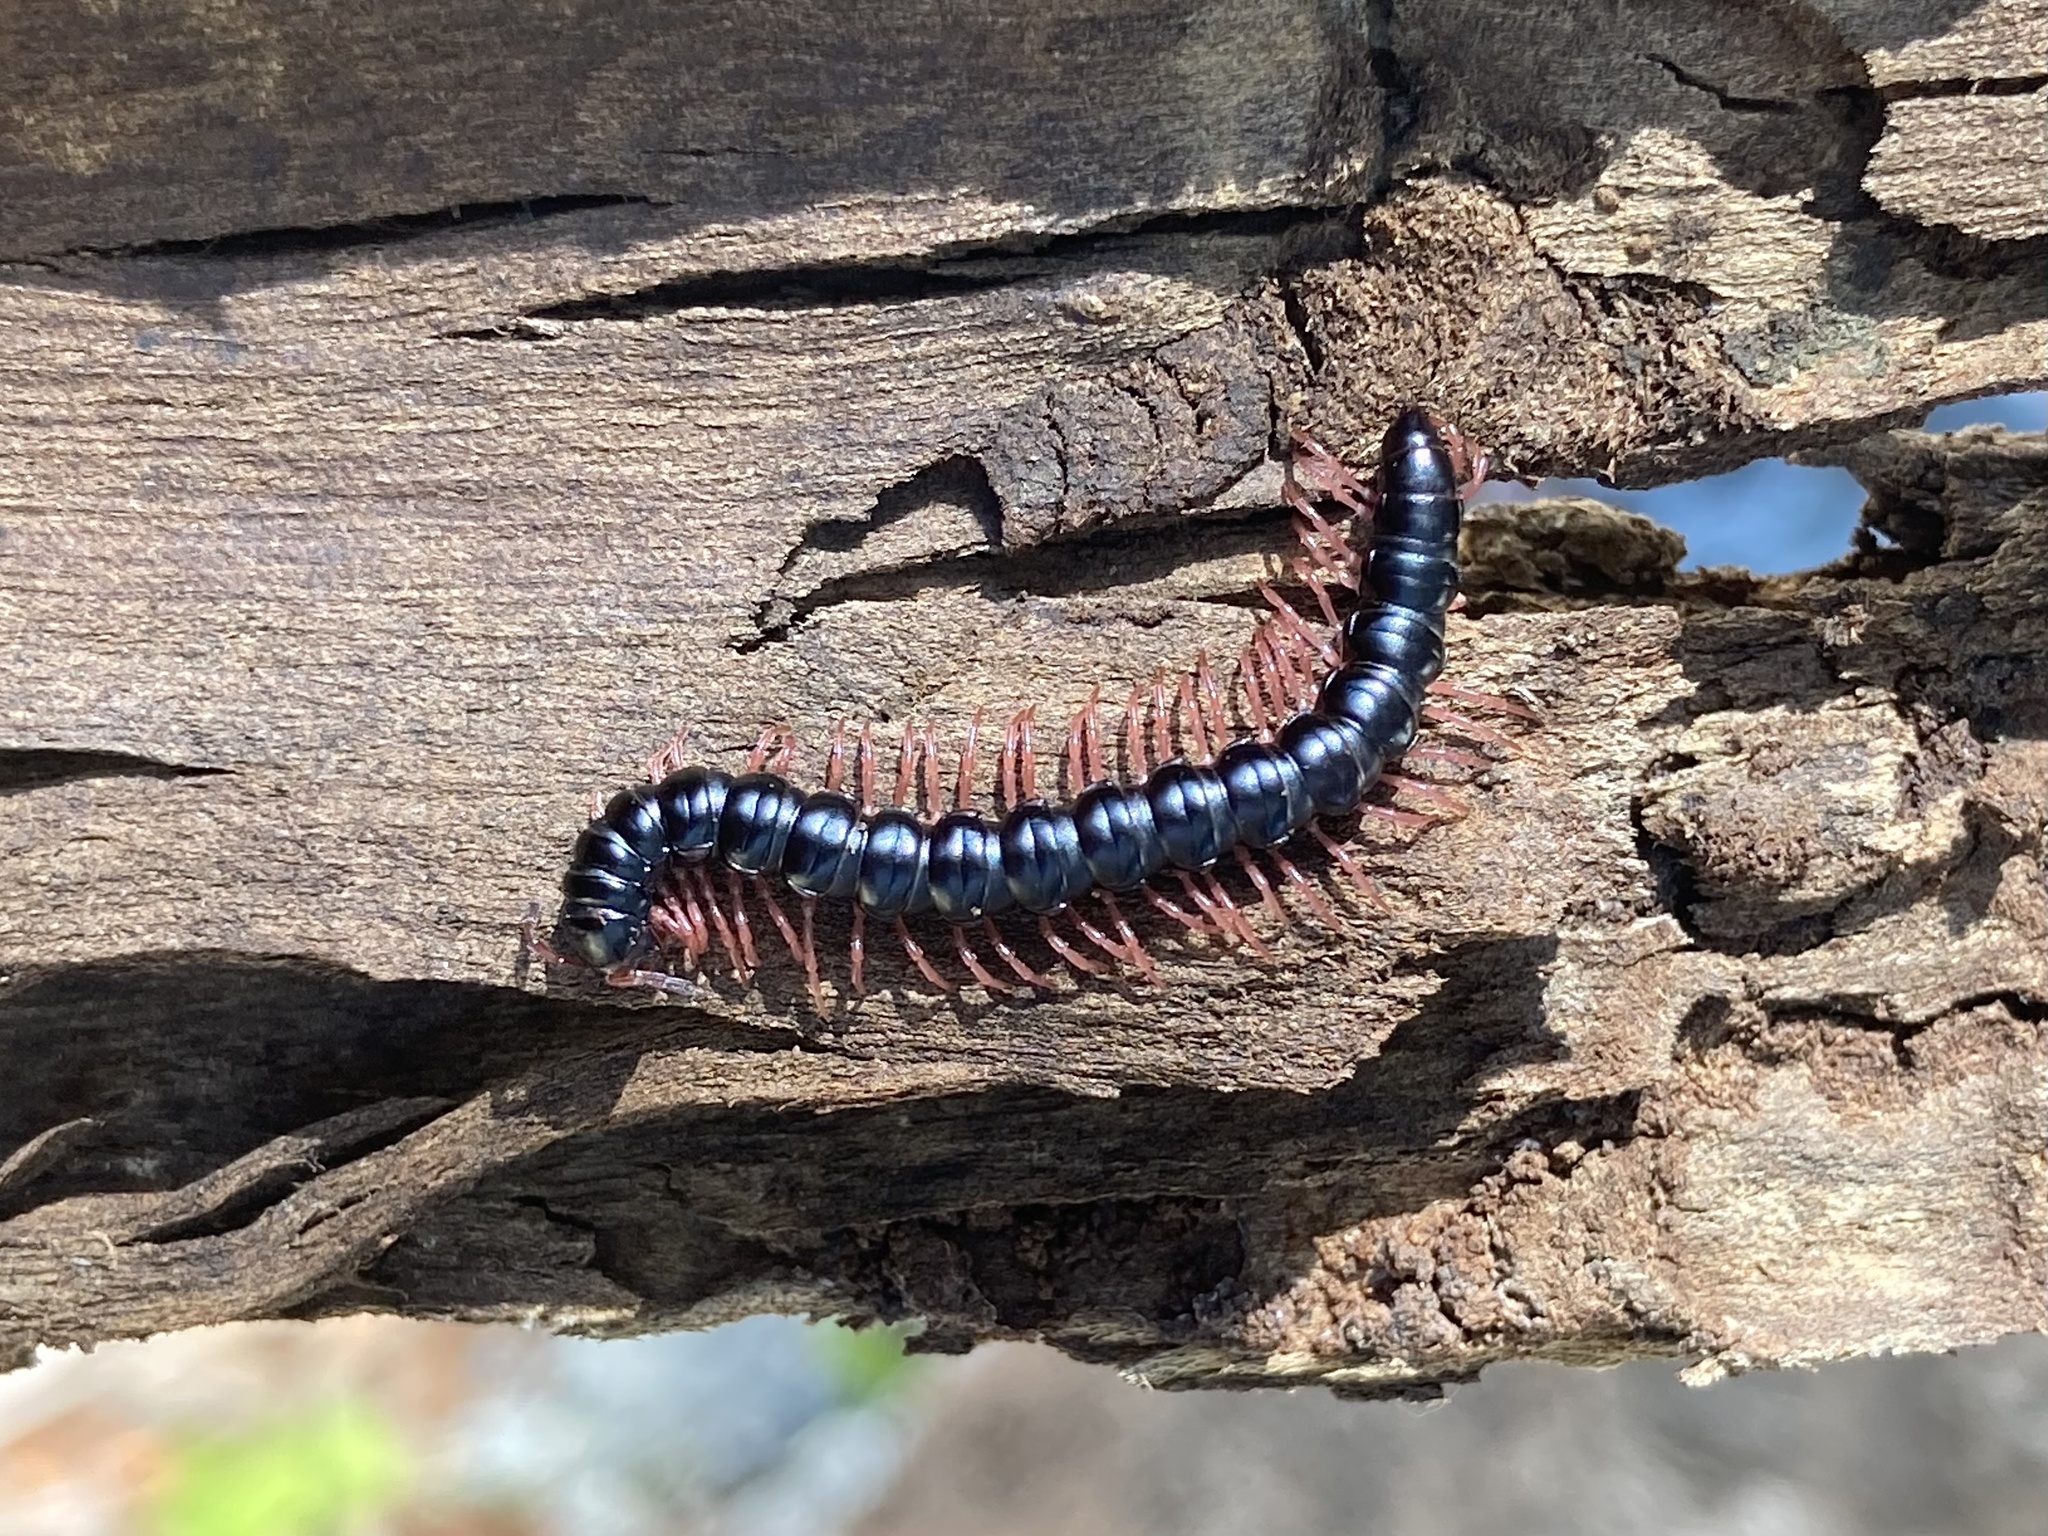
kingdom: Animalia
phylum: Arthropoda
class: Diplopoda
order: Polydesmida
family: Paradoxosomatidae
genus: Heterocladosoma
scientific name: Heterocladosoma
